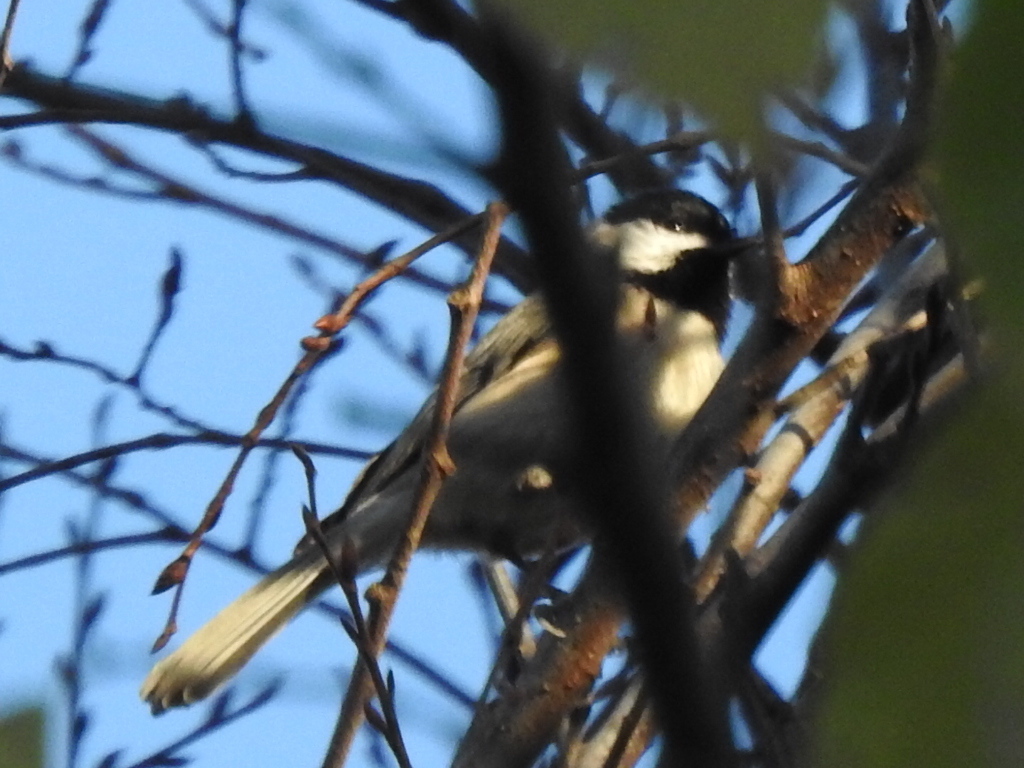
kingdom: Animalia
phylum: Chordata
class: Aves
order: Passeriformes
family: Paridae
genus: Poecile
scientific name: Poecile carolinensis
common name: Carolina chickadee
